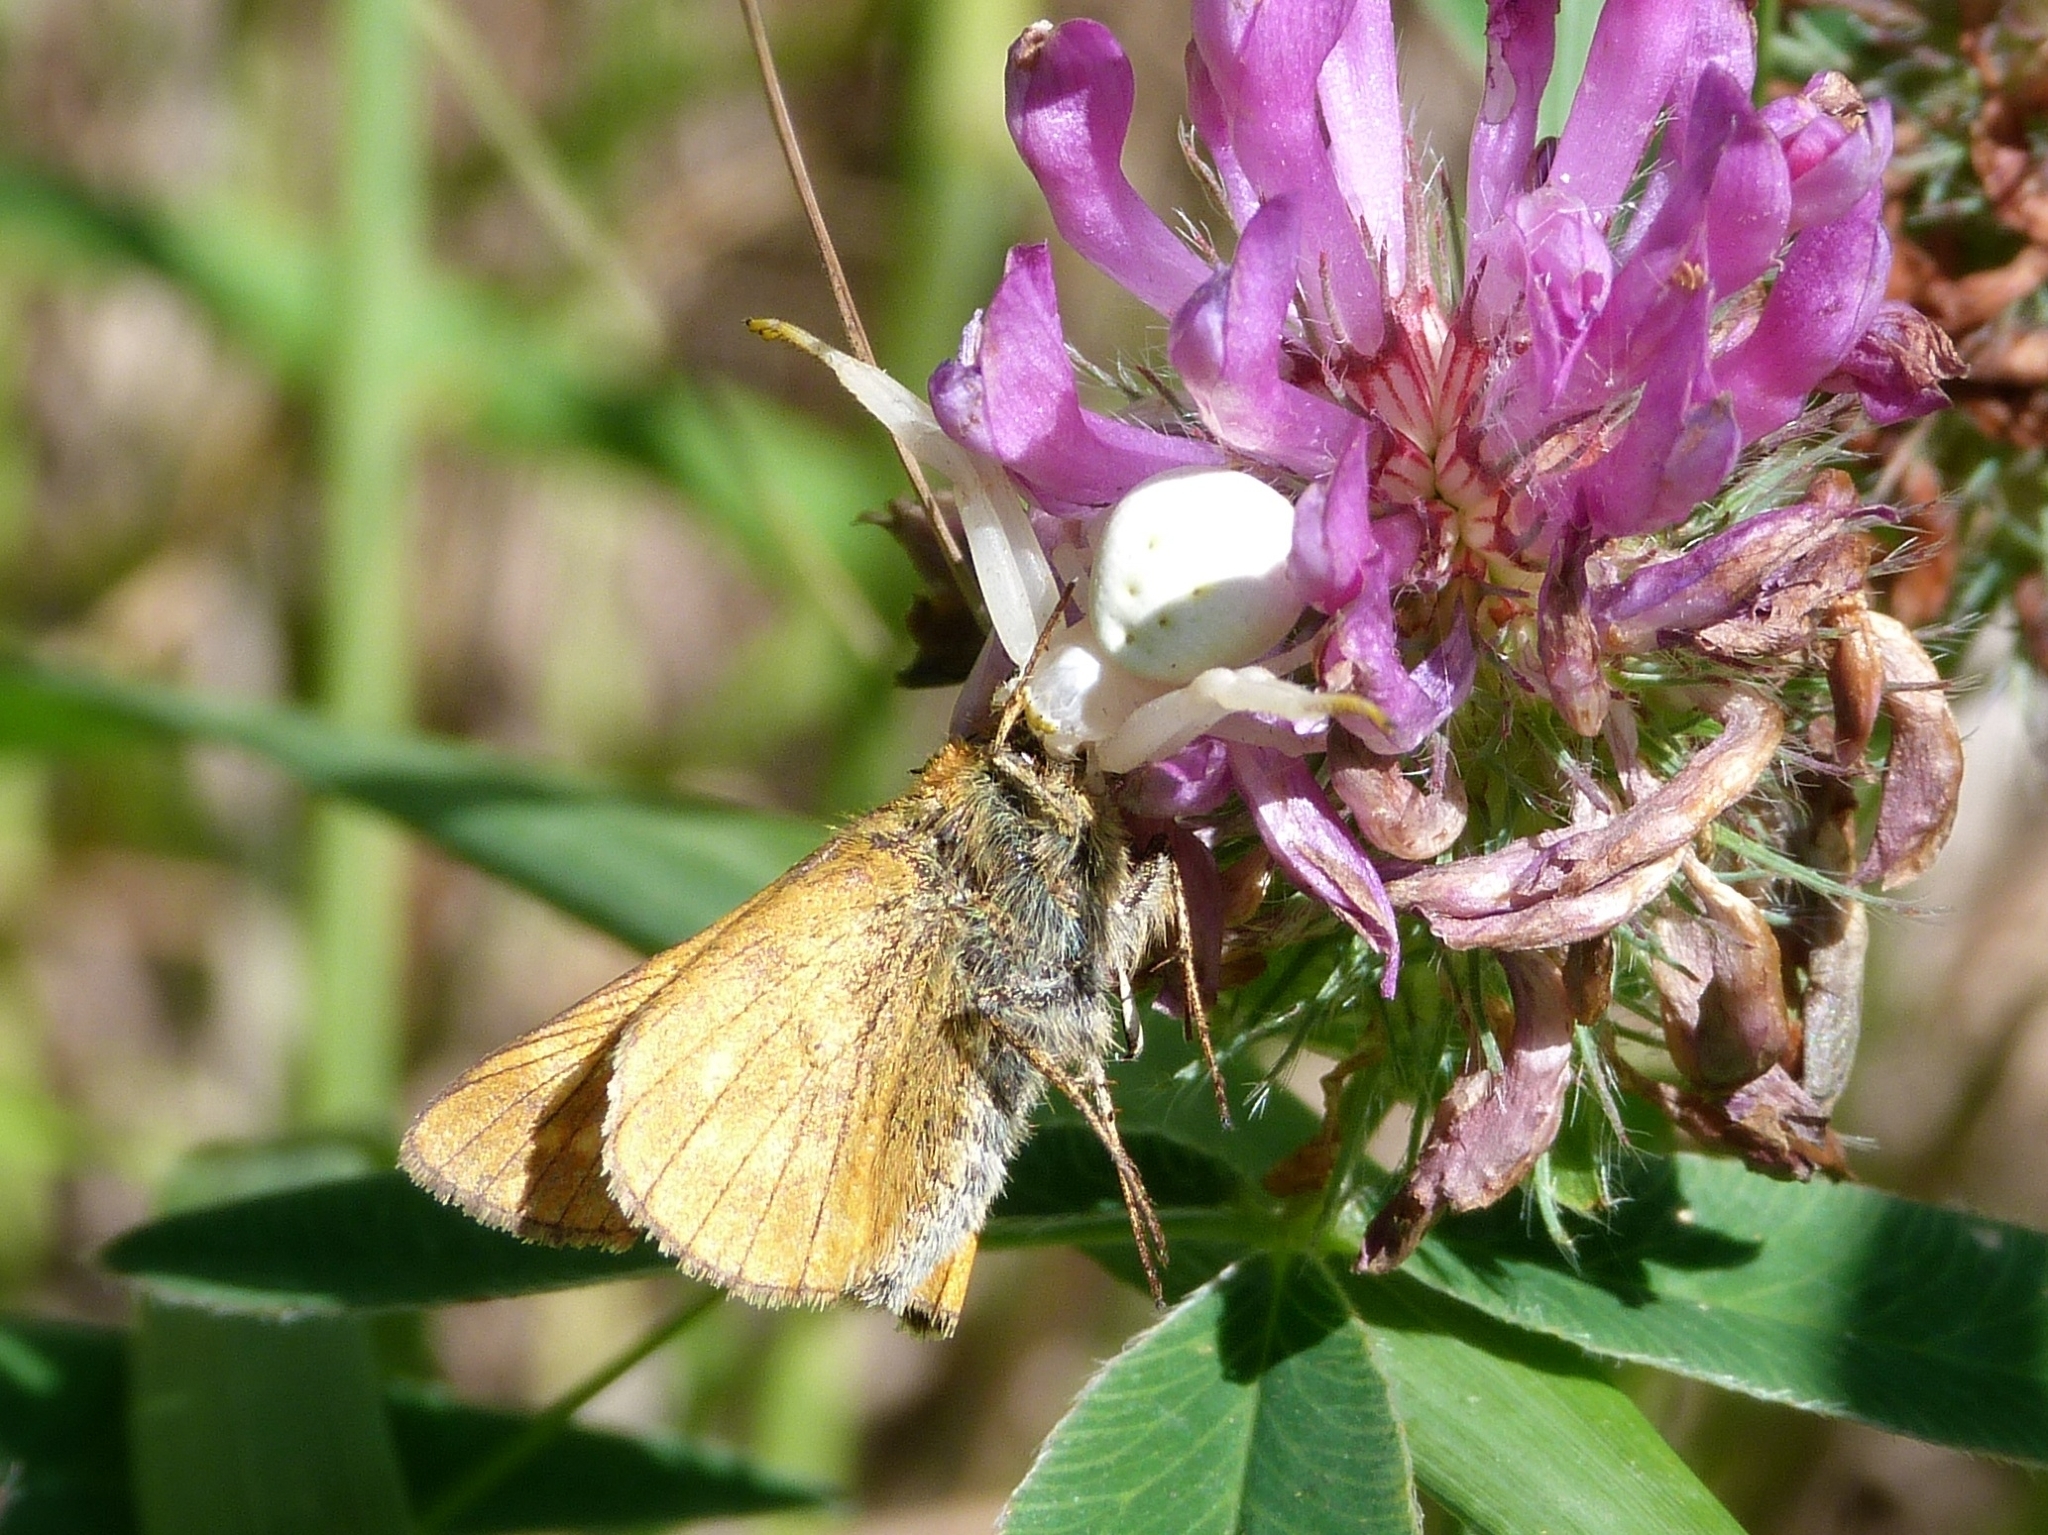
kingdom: Animalia
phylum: Arthropoda
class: Arachnida
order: Araneae
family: Thomisidae
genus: Misumena
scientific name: Misumena vatia
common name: Goldenrod crab spider
